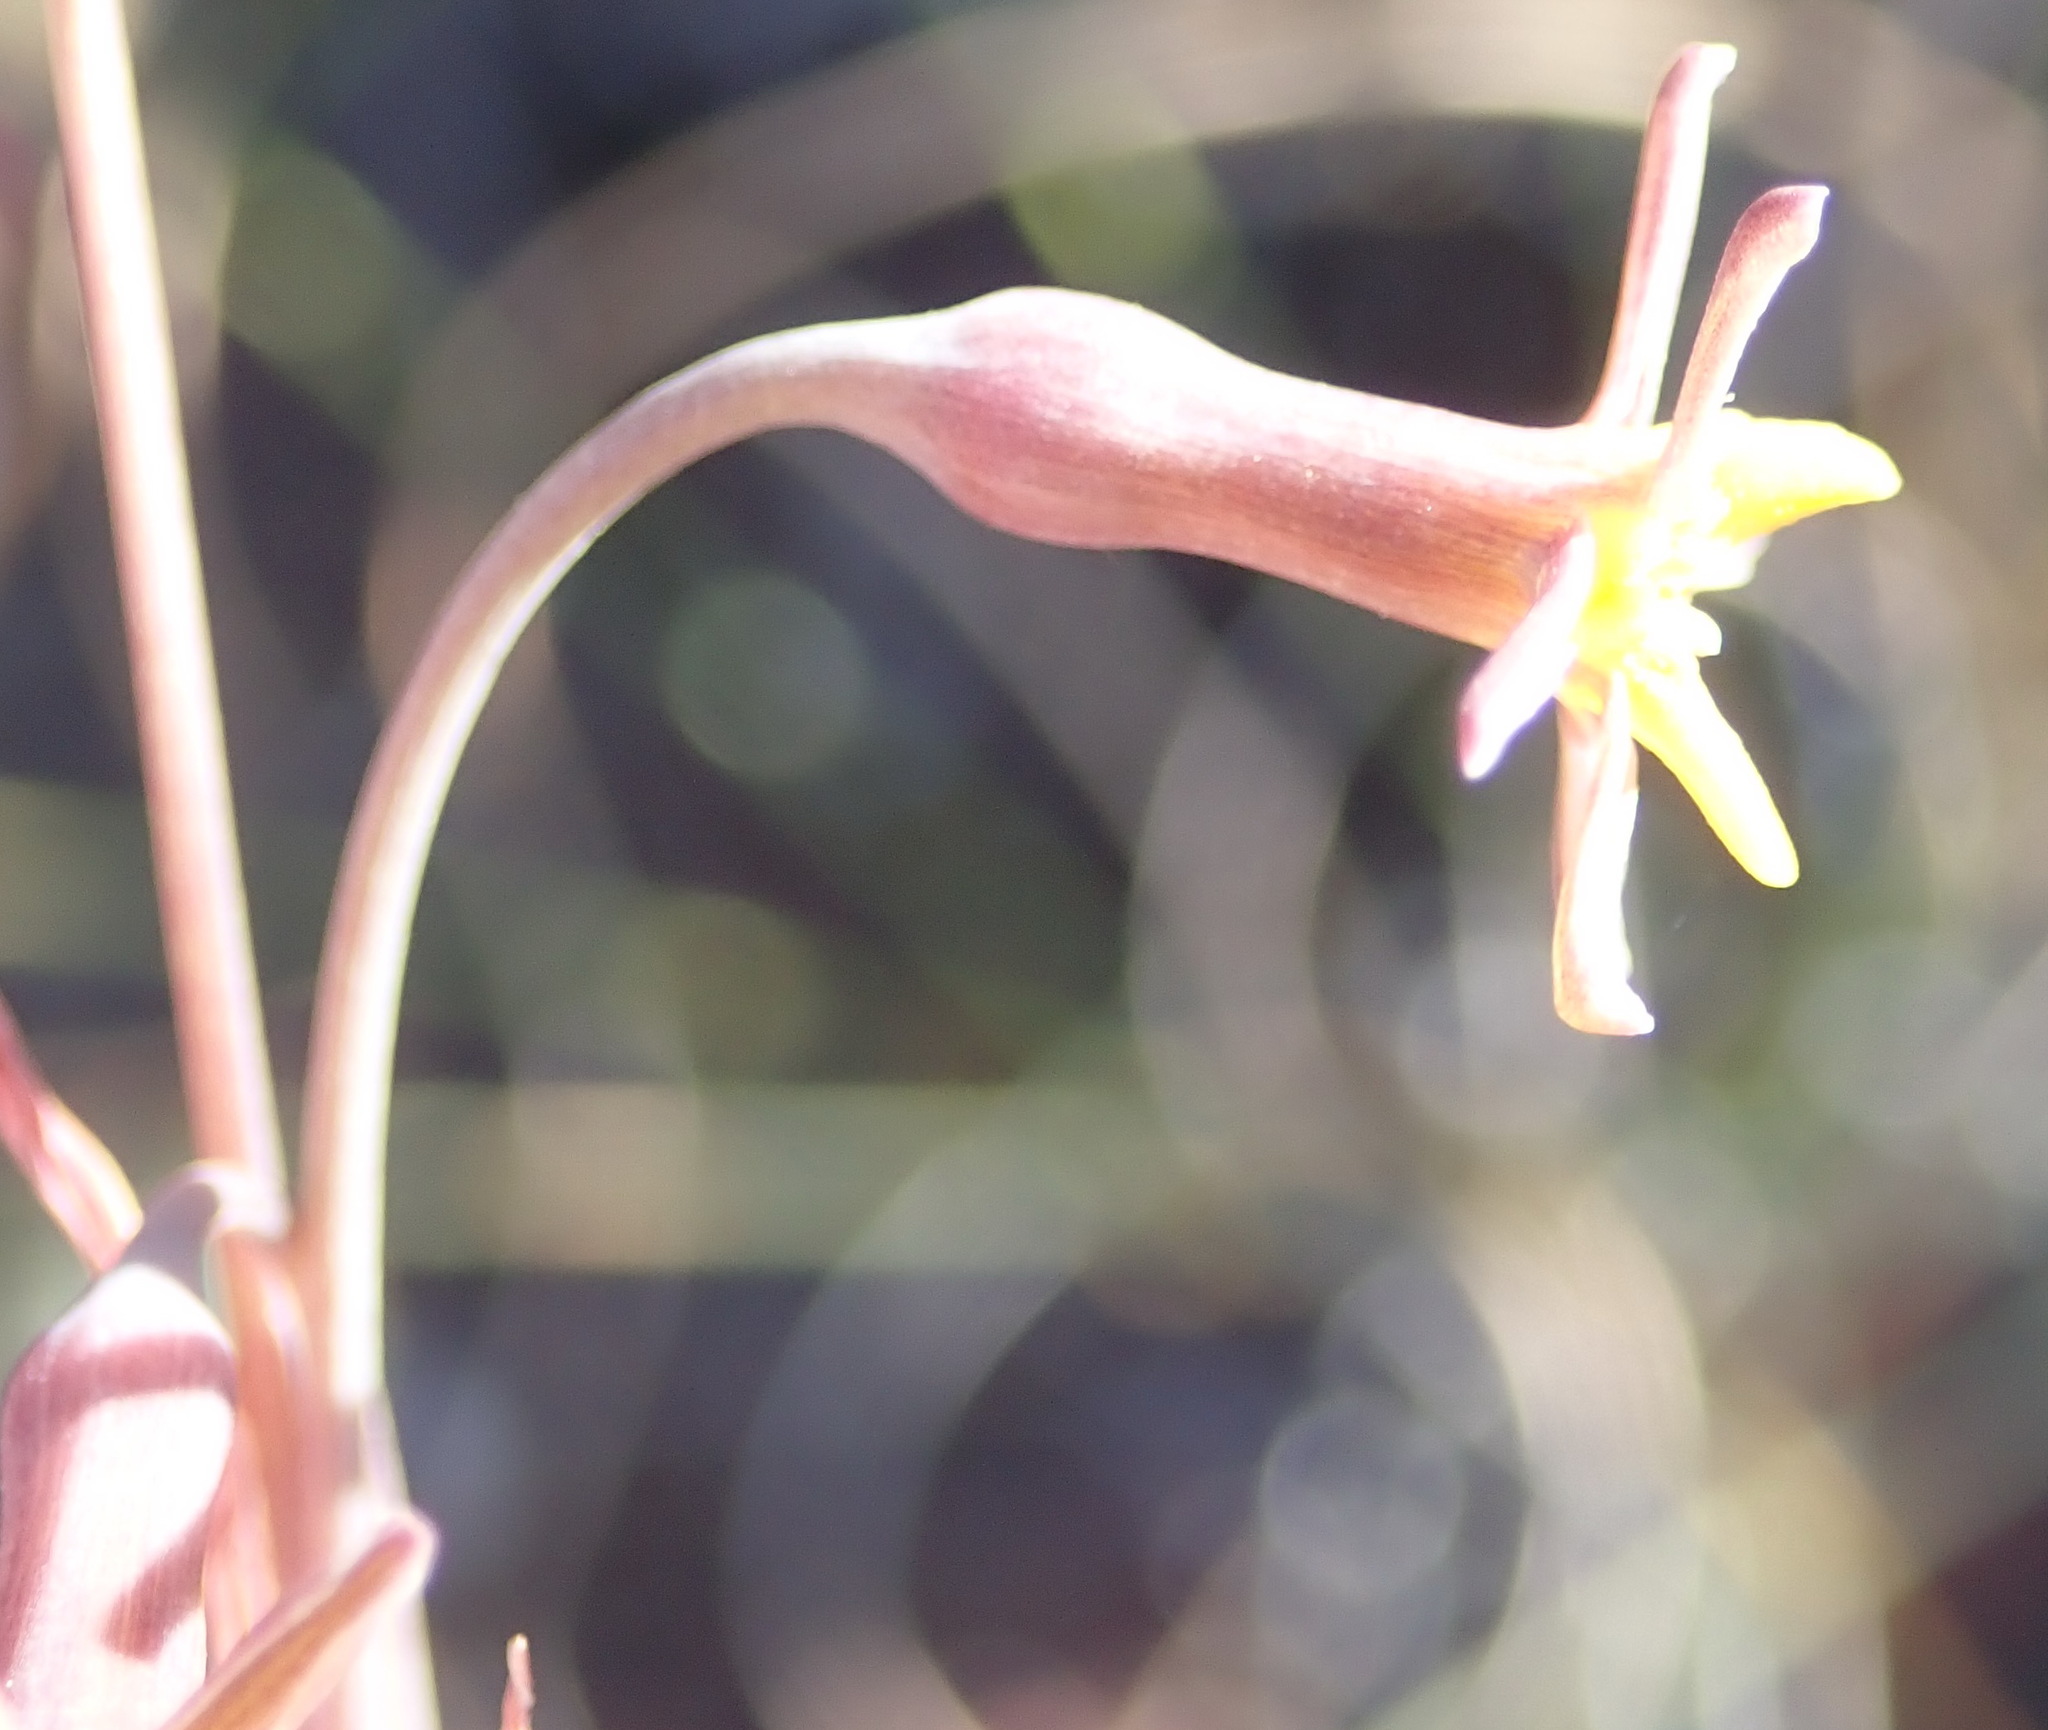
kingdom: Plantae
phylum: Tracheophyta
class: Liliopsida
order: Asparagales
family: Amaryllidaceae
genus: Tulbaghia
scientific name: Tulbaghia capensis
